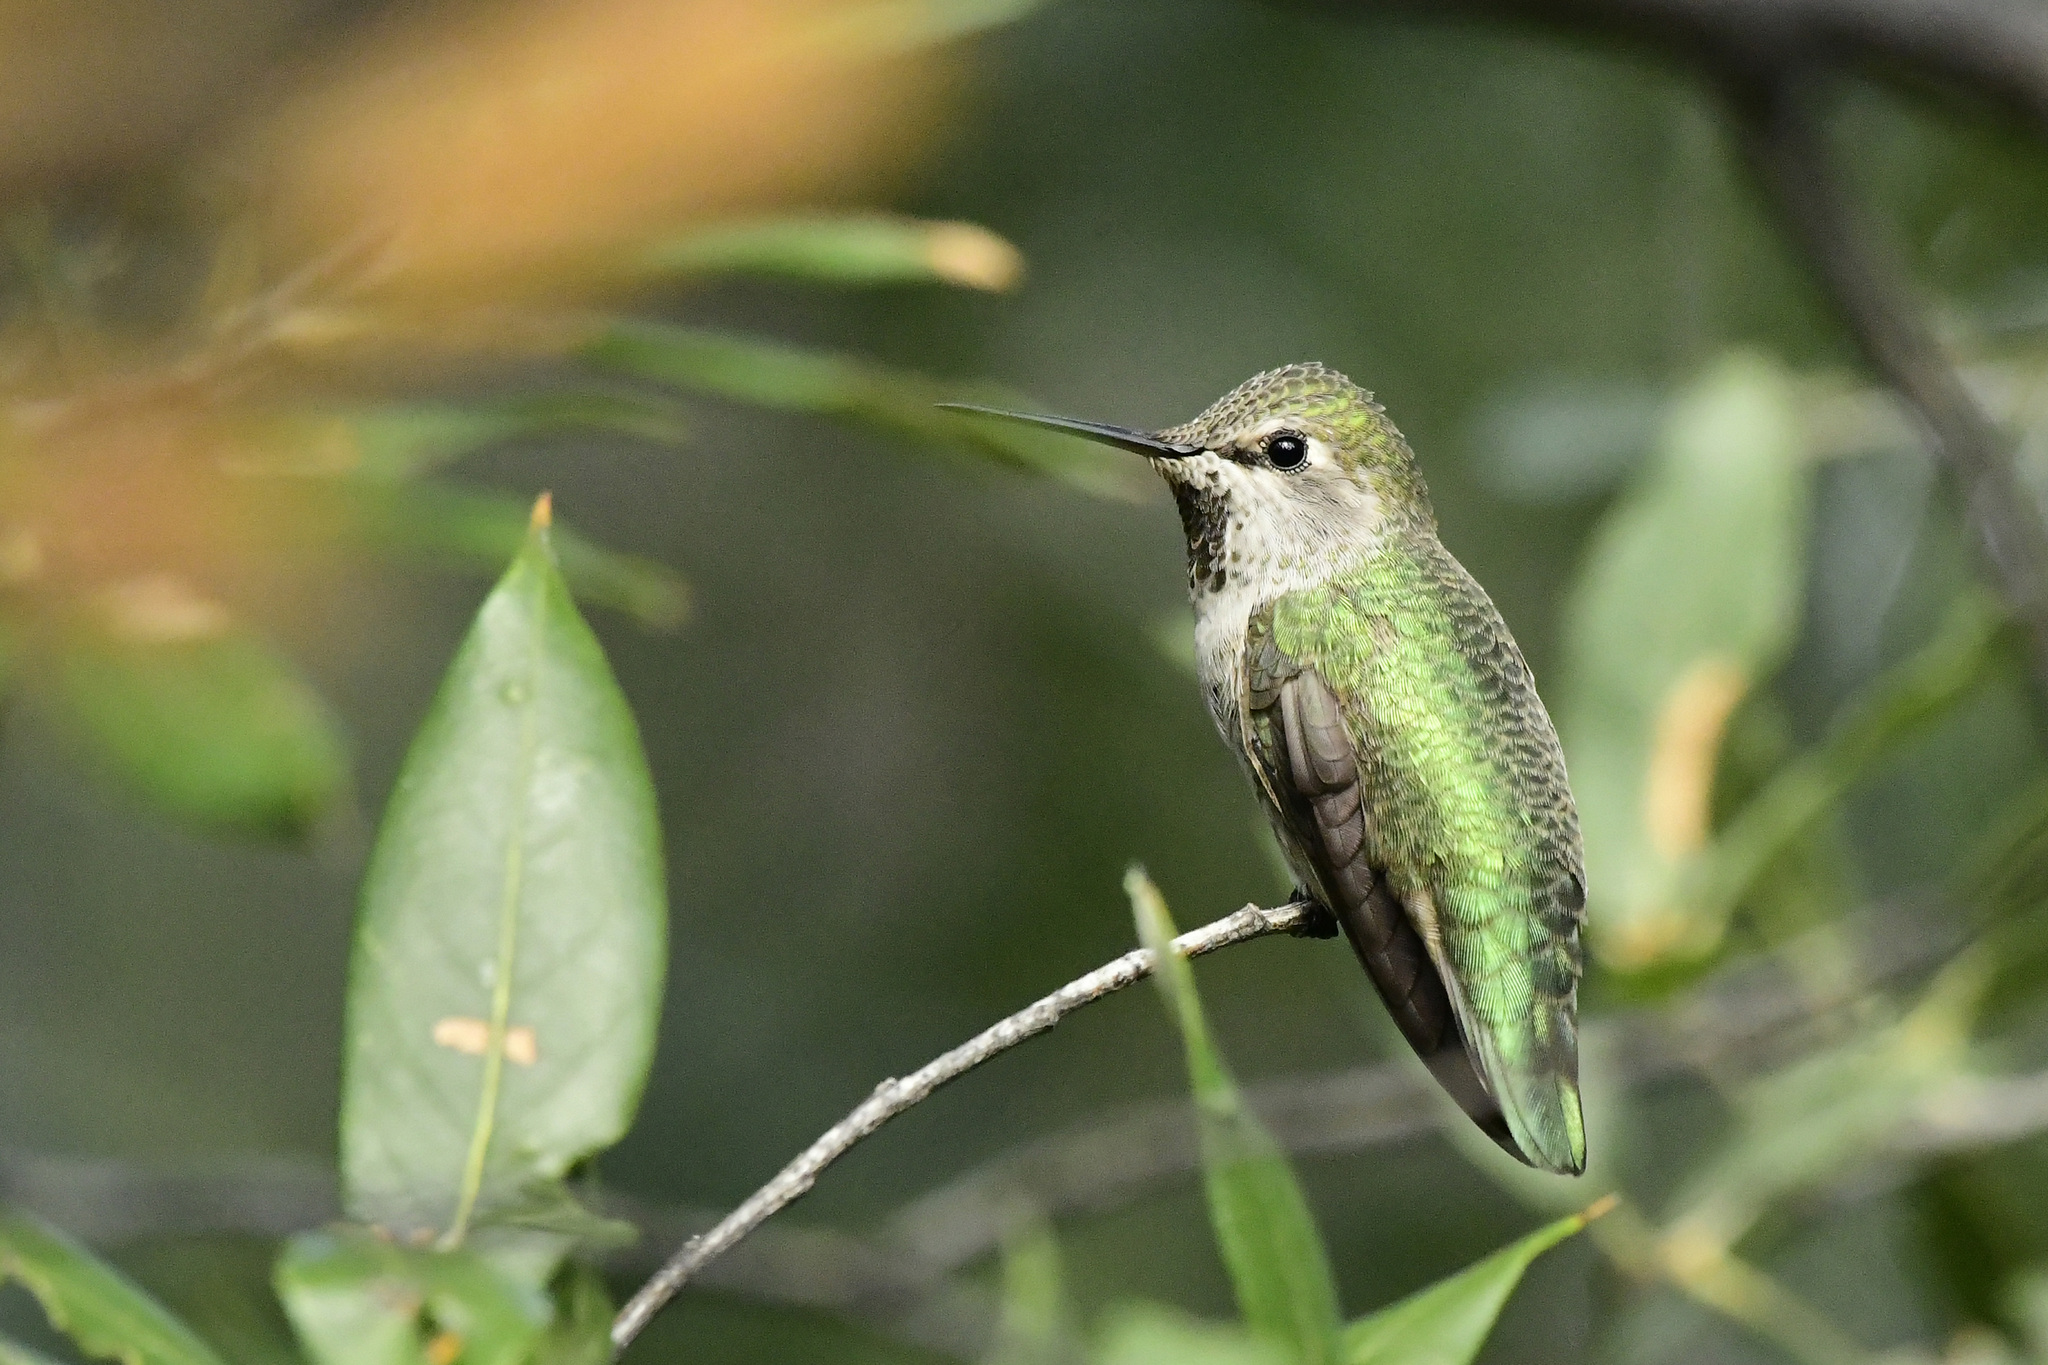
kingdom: Animalia
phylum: Chordata
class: Aves
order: Apodiformes
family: Trochilidae
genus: Calypte
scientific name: Calypte anna
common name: Anna's hummingbird
